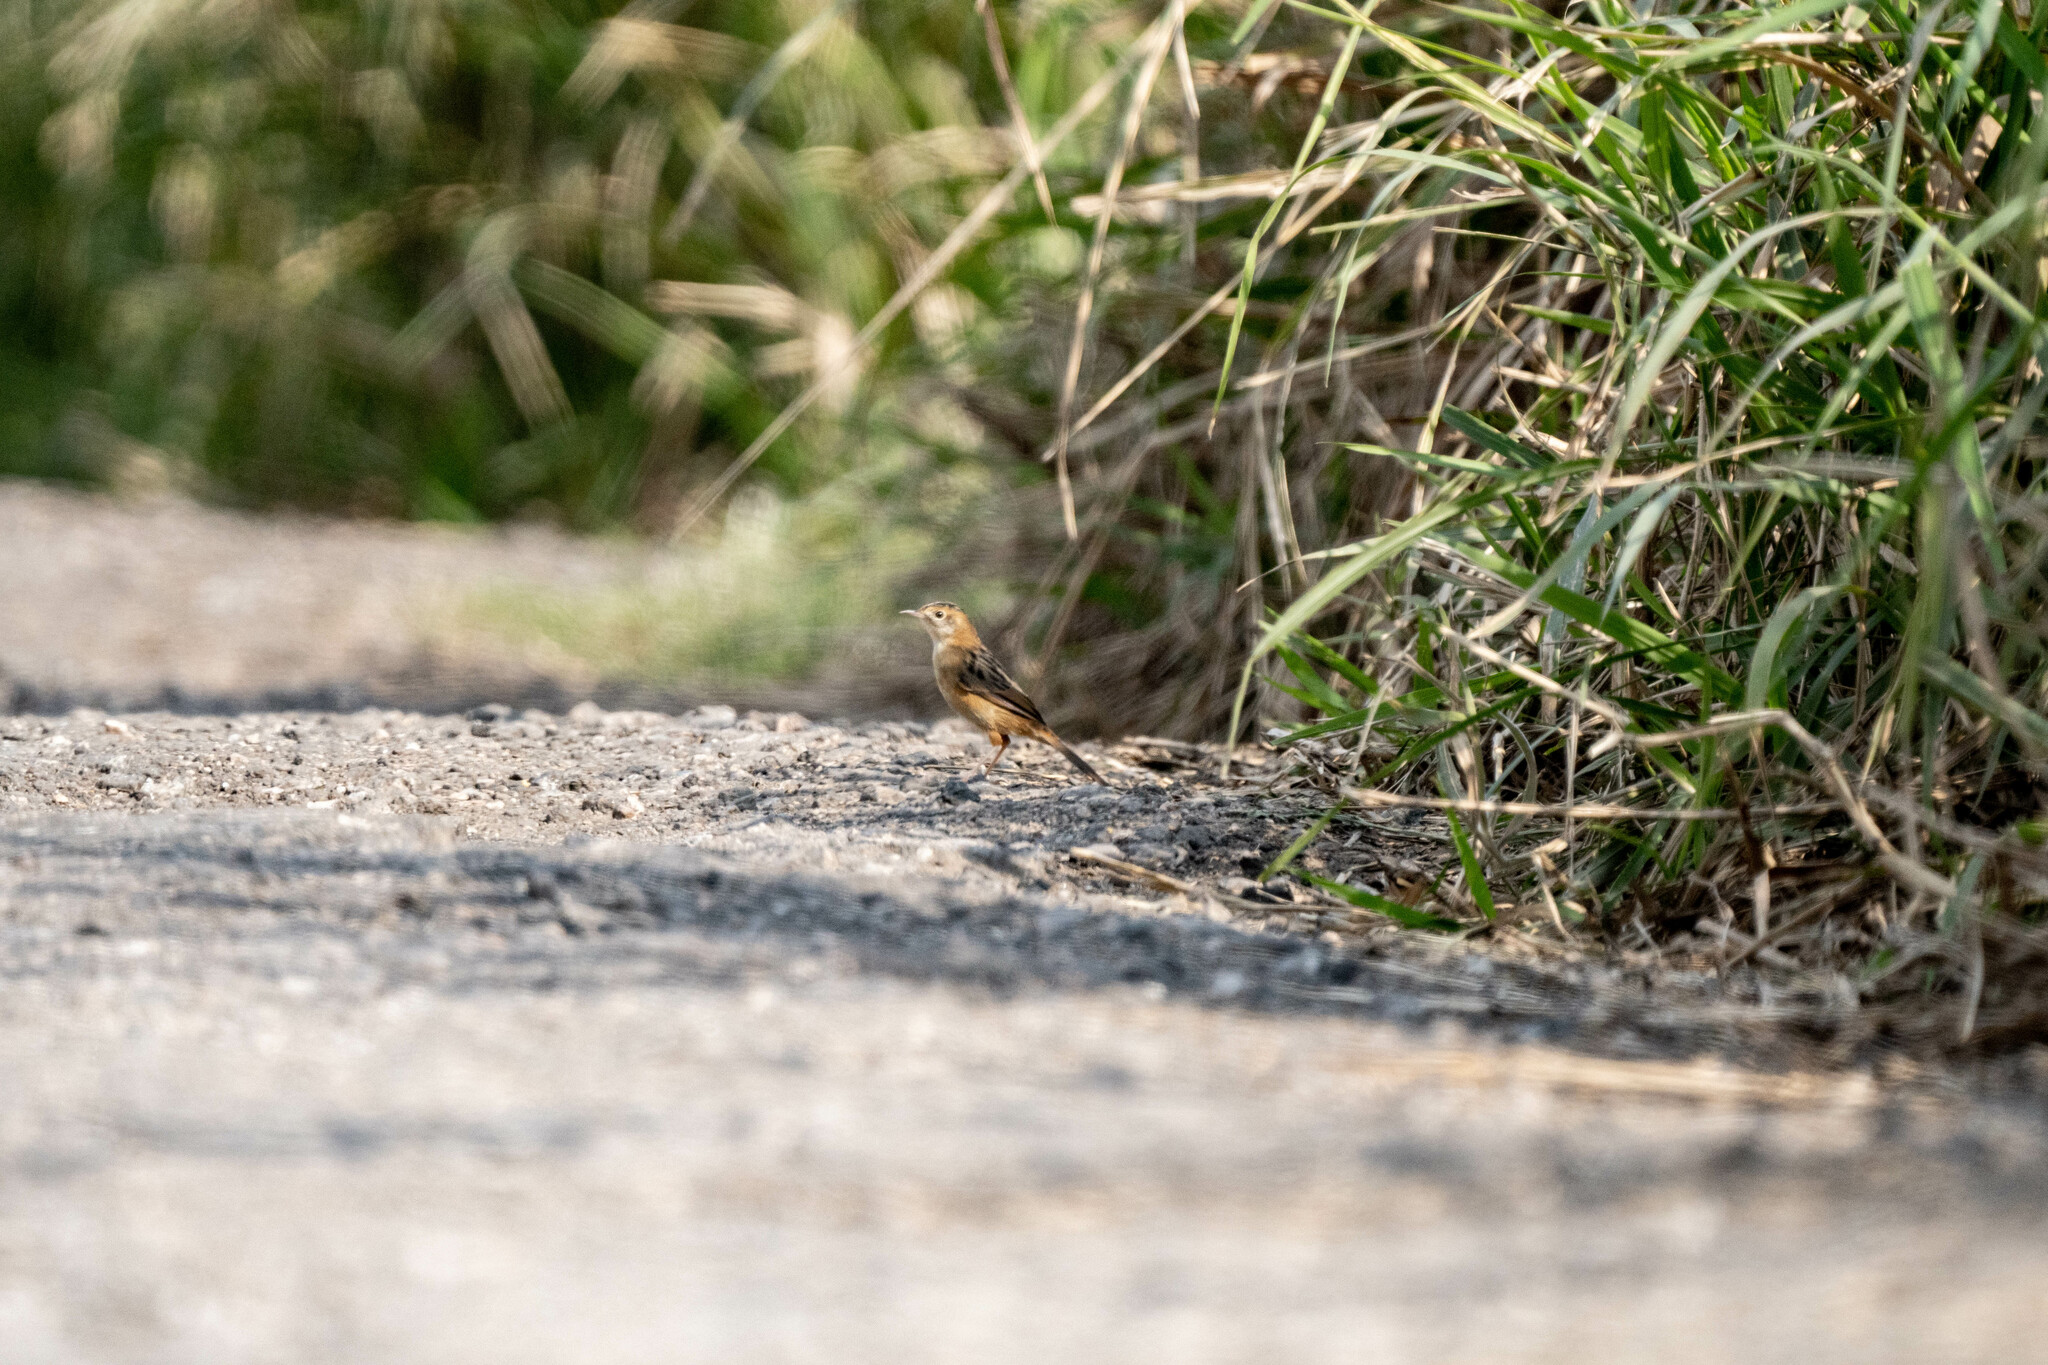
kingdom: Animalia
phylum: Chordata
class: Aves
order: Passeriformes
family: Cisticolidae
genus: Cisticola
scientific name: Cisticola juncidis
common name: Zitting cisticola
